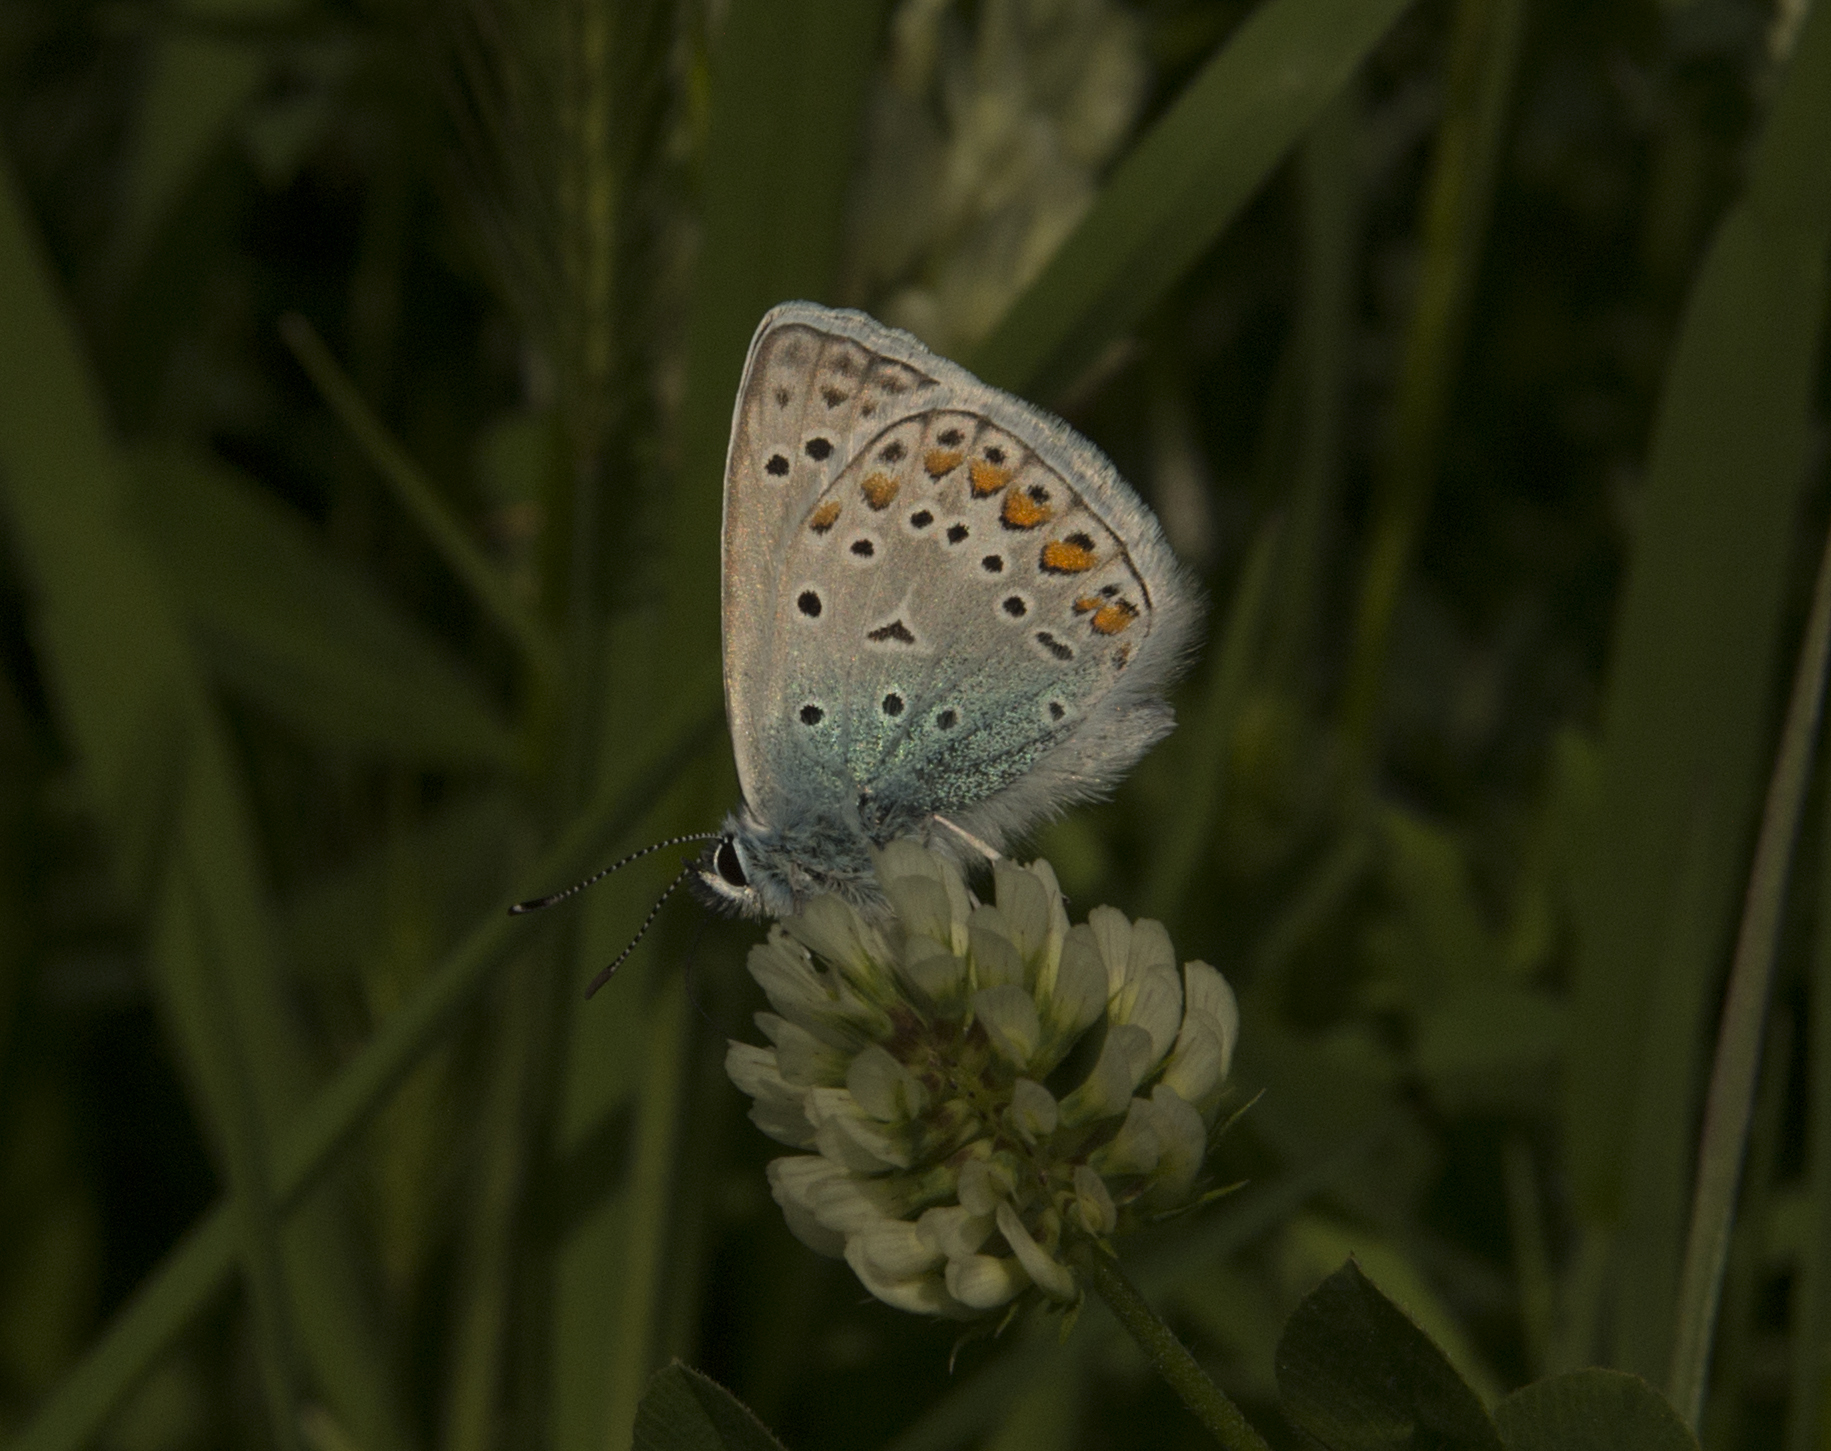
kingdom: Animalia
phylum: Arthropoda
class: Insecta
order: Lepidoptera
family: Lycaenidae
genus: Polyommatus
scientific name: Polyommatus icarus
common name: Common blue
